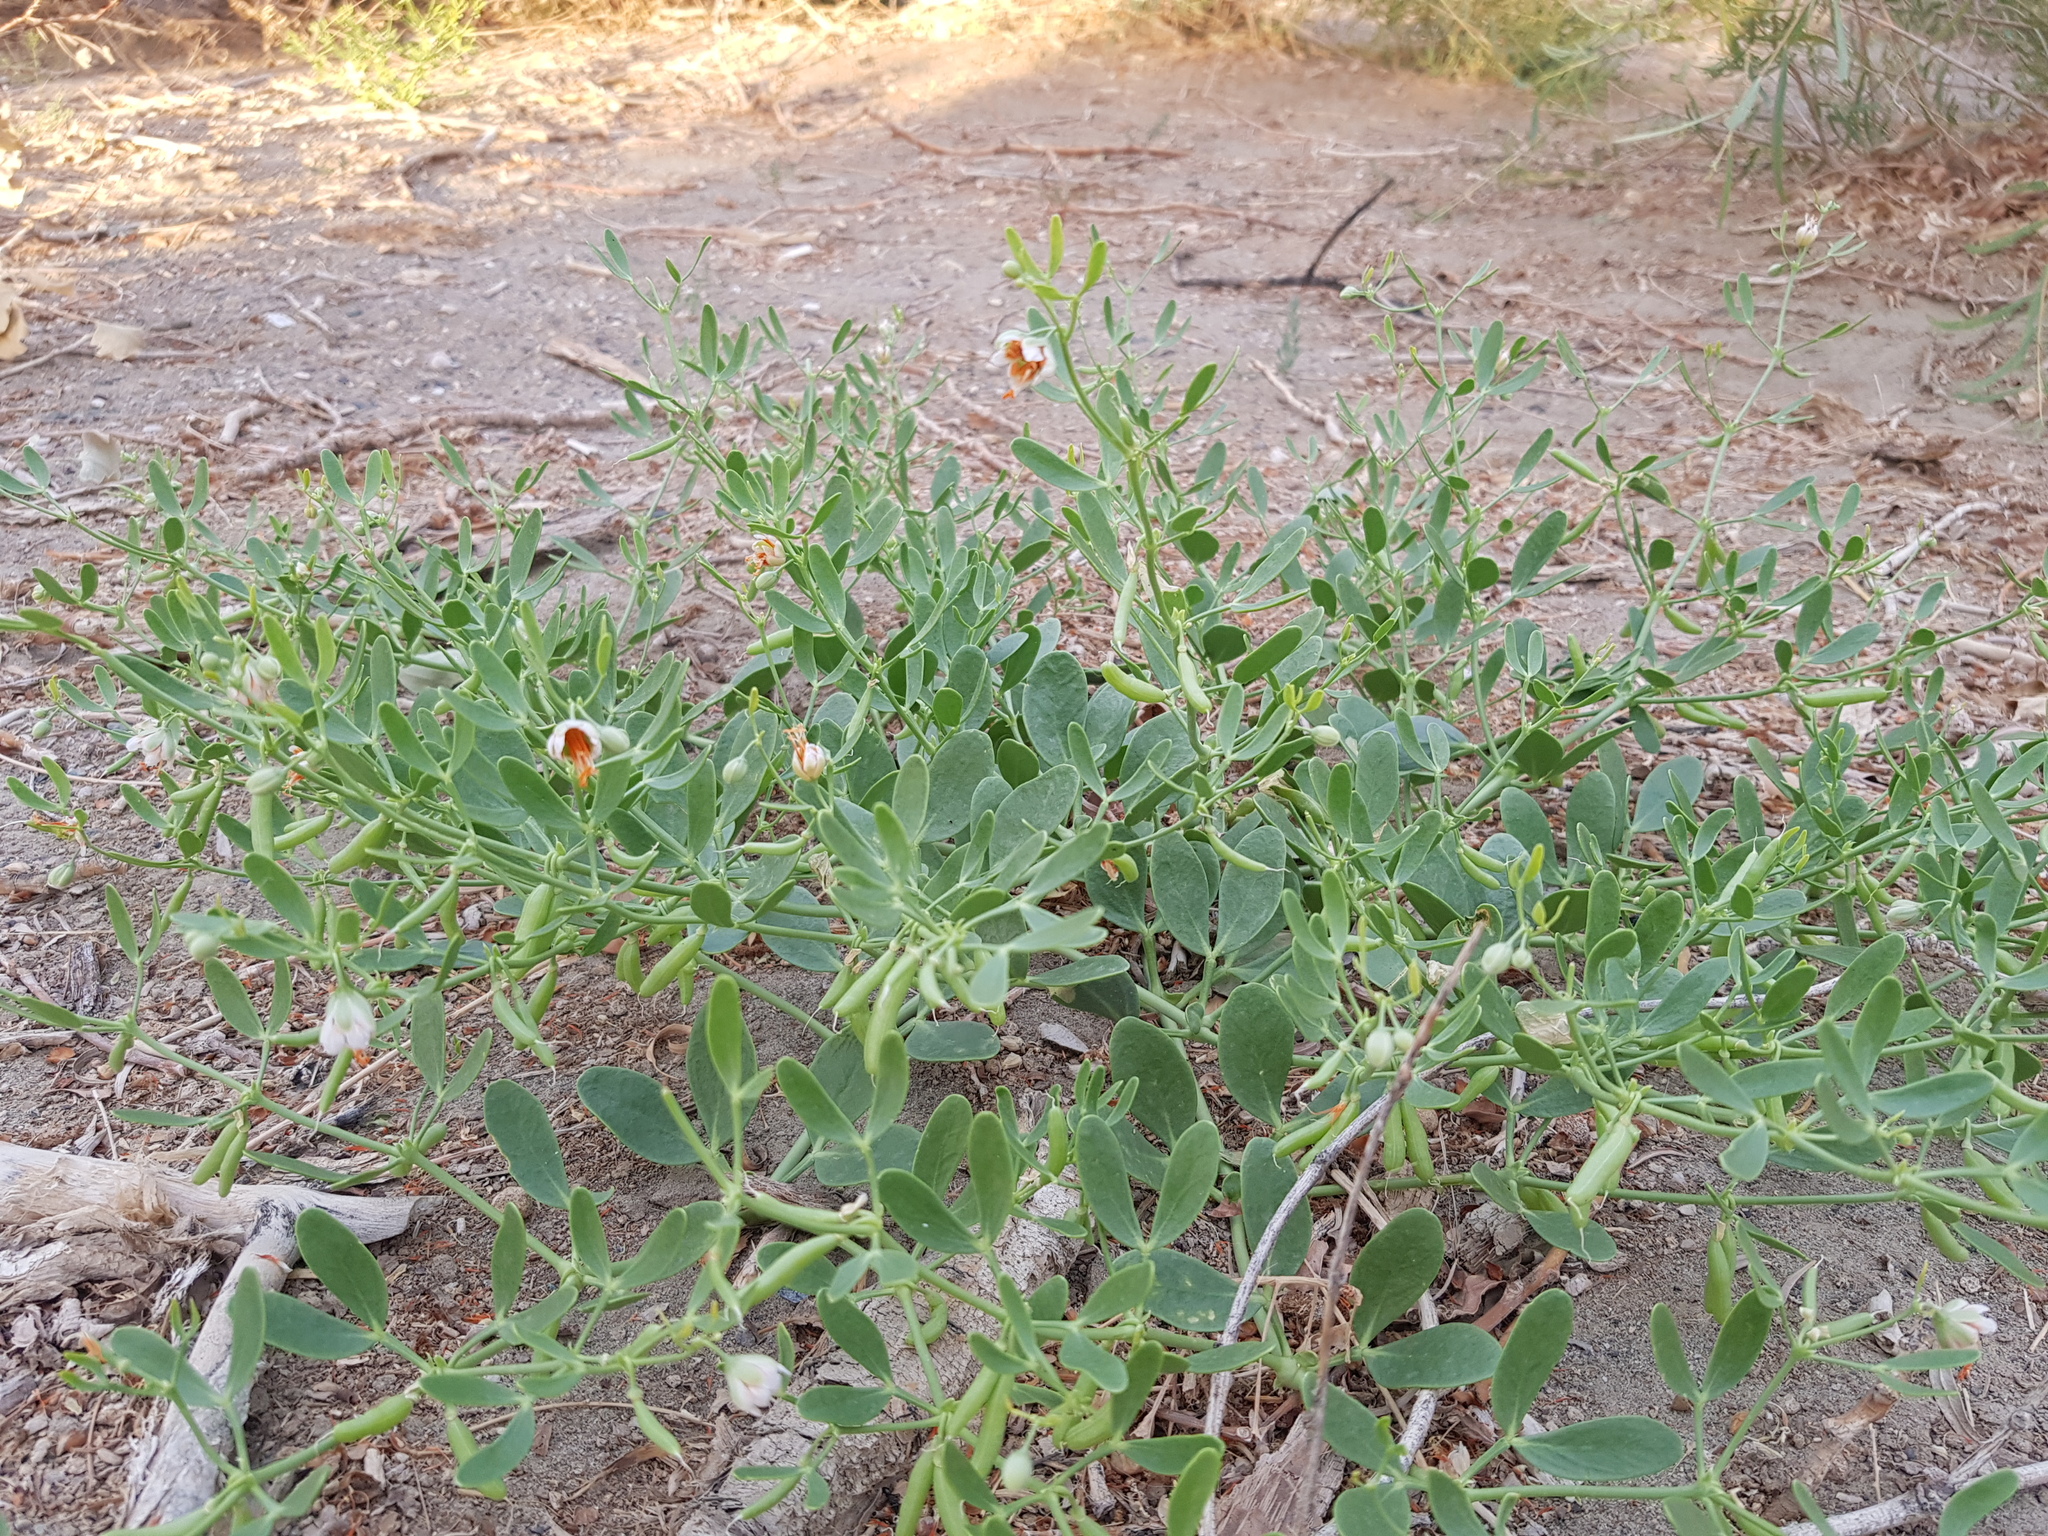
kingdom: Plantae
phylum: Tracheophyta
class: Magnoliopsida
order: Zygophyllales
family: Zygophyllaceae
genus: Zygophyllum
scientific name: Zygophyllum brachypterum
